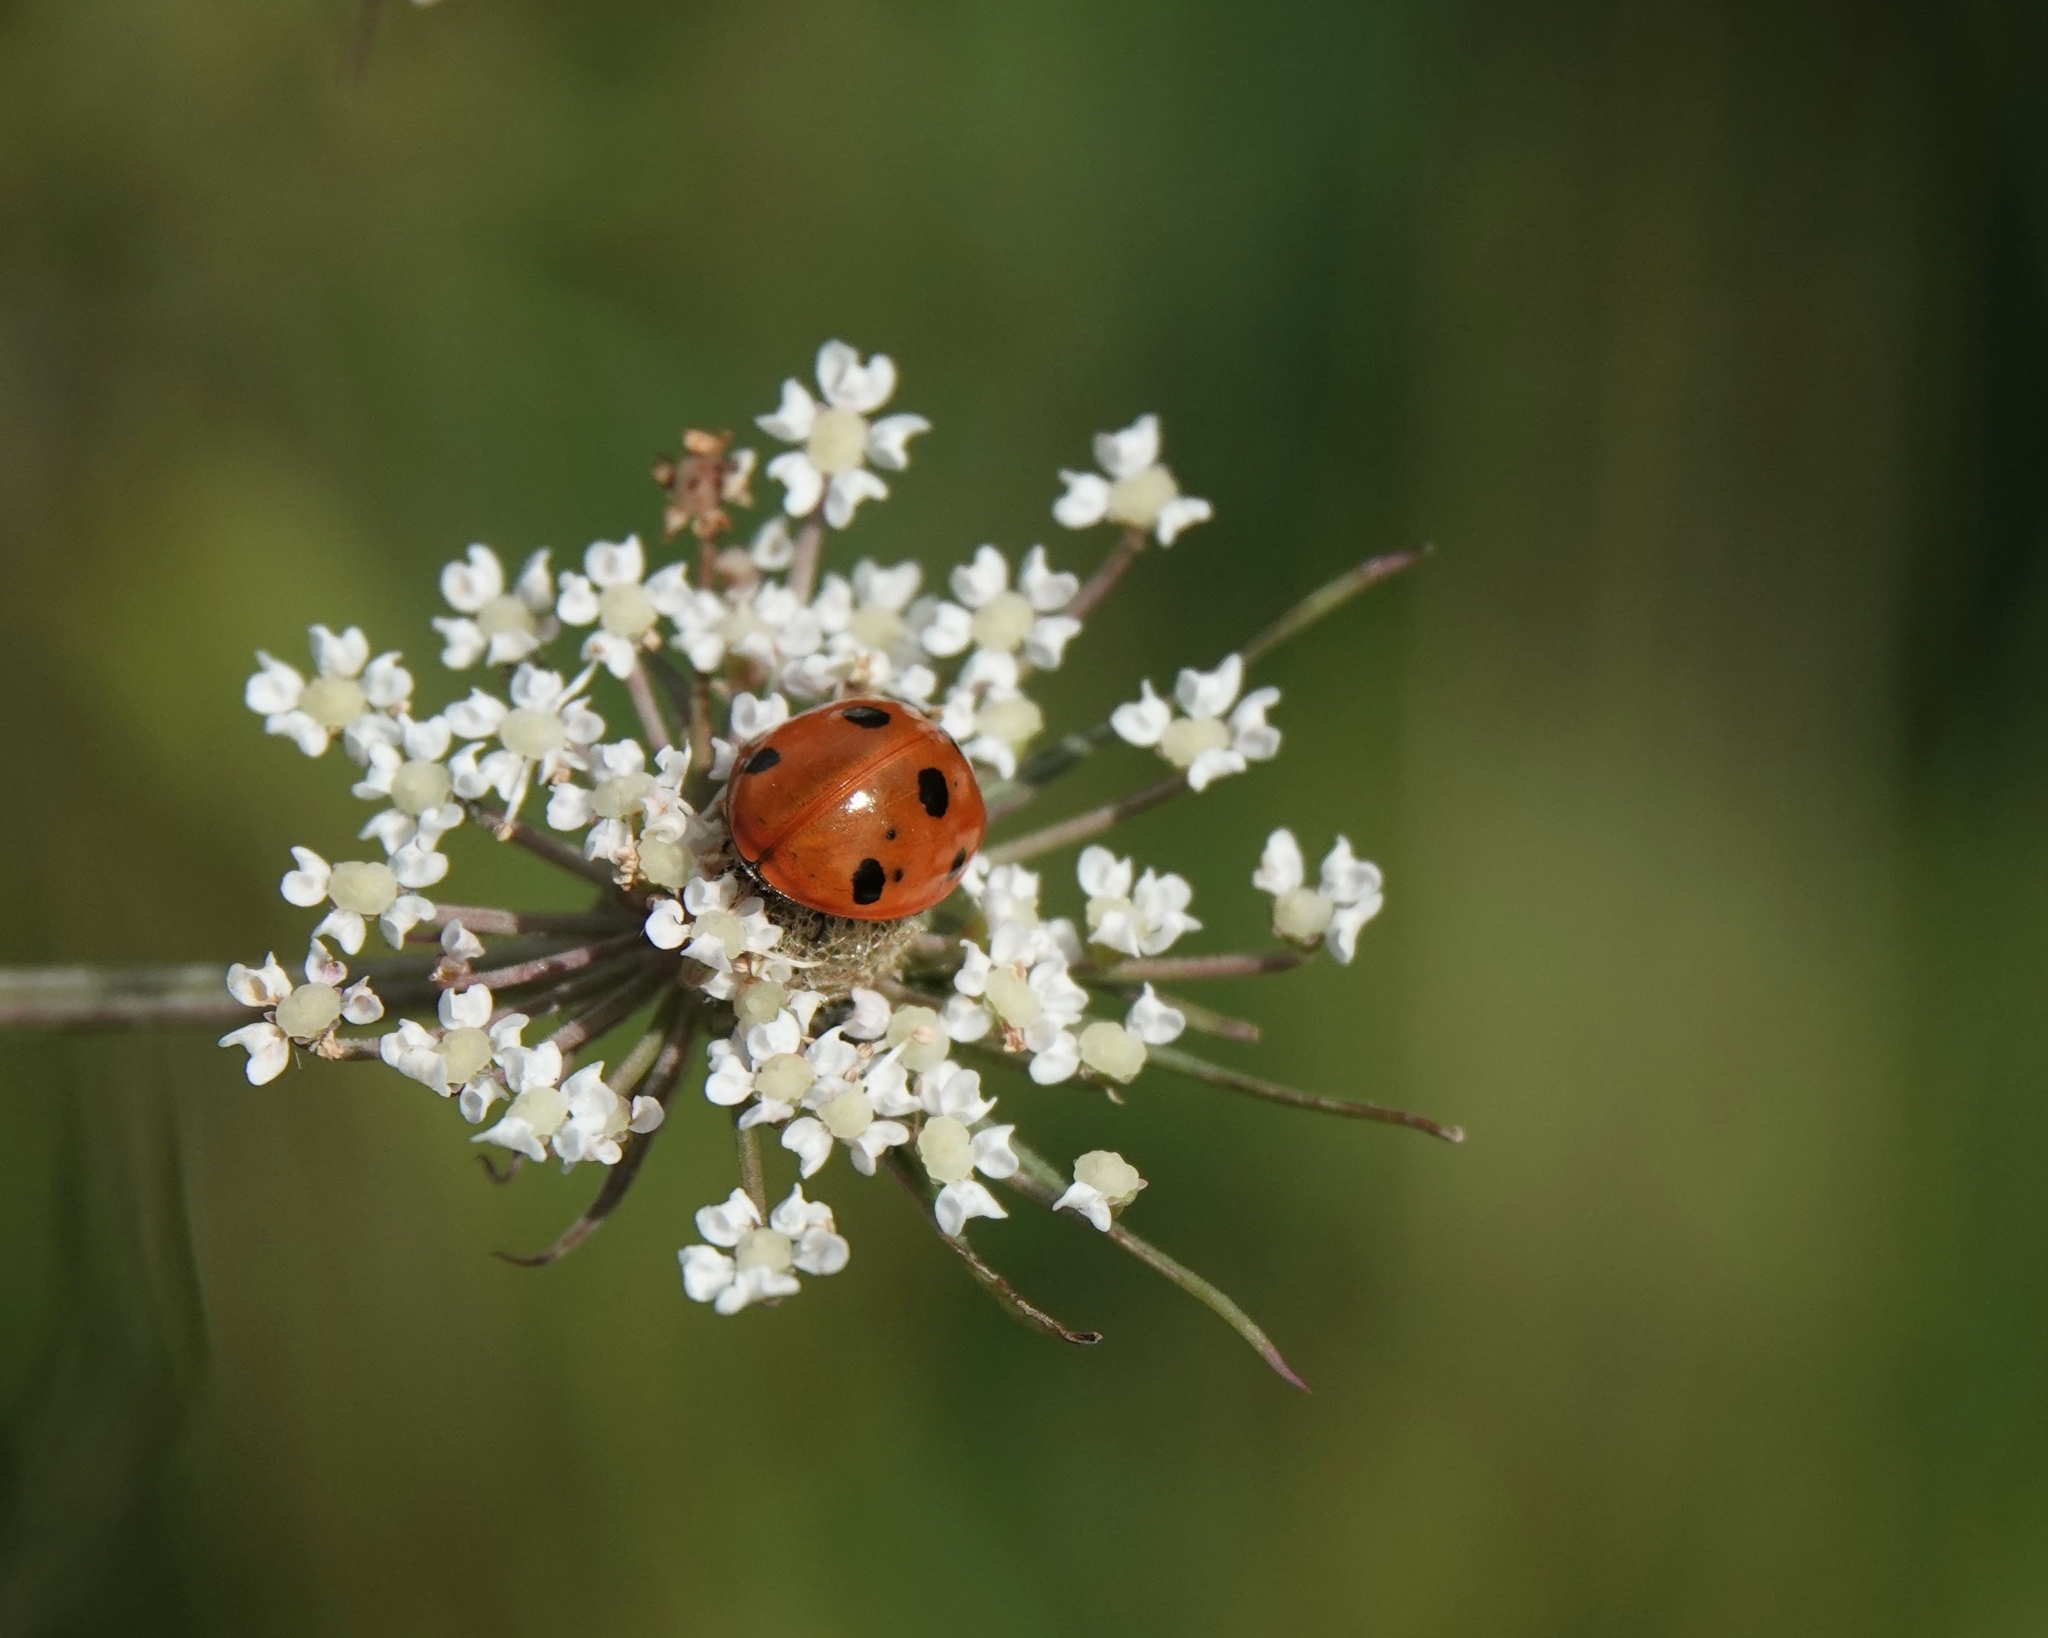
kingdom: Animalia
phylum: Arthropoda
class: Insecta
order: Coleoptera
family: Coccinellidae
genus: Coccinella
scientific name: Coccinella septempunctata
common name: Sevenspotted lady beetle
